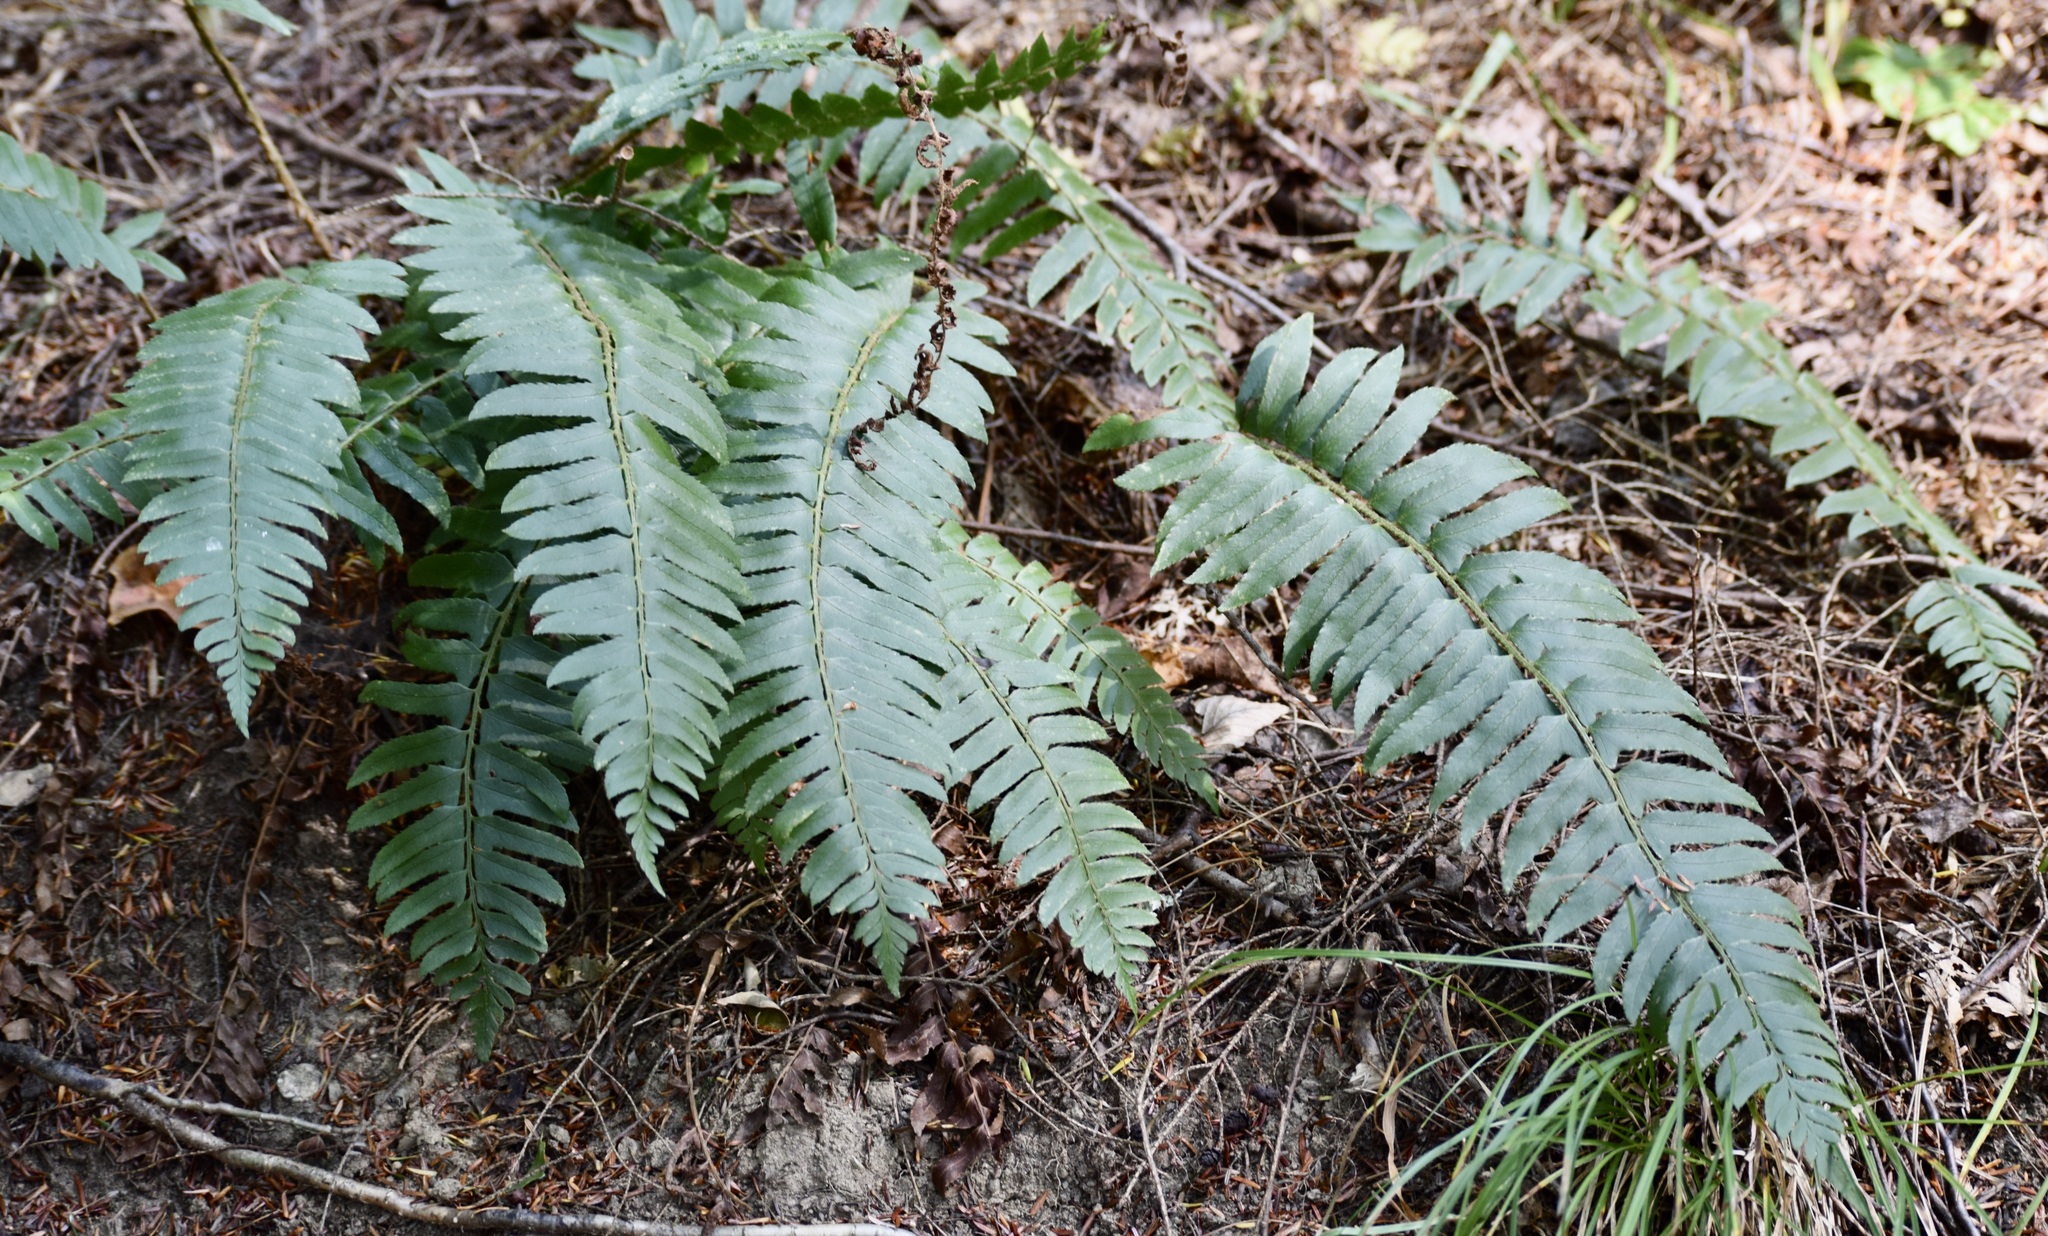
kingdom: Plantae
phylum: Tracheophyta
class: Polypodiopsida
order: Polypodiales
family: Dryopteridaceae
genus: Polystichum
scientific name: Polystichum acrostichoides
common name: Christmas fern
